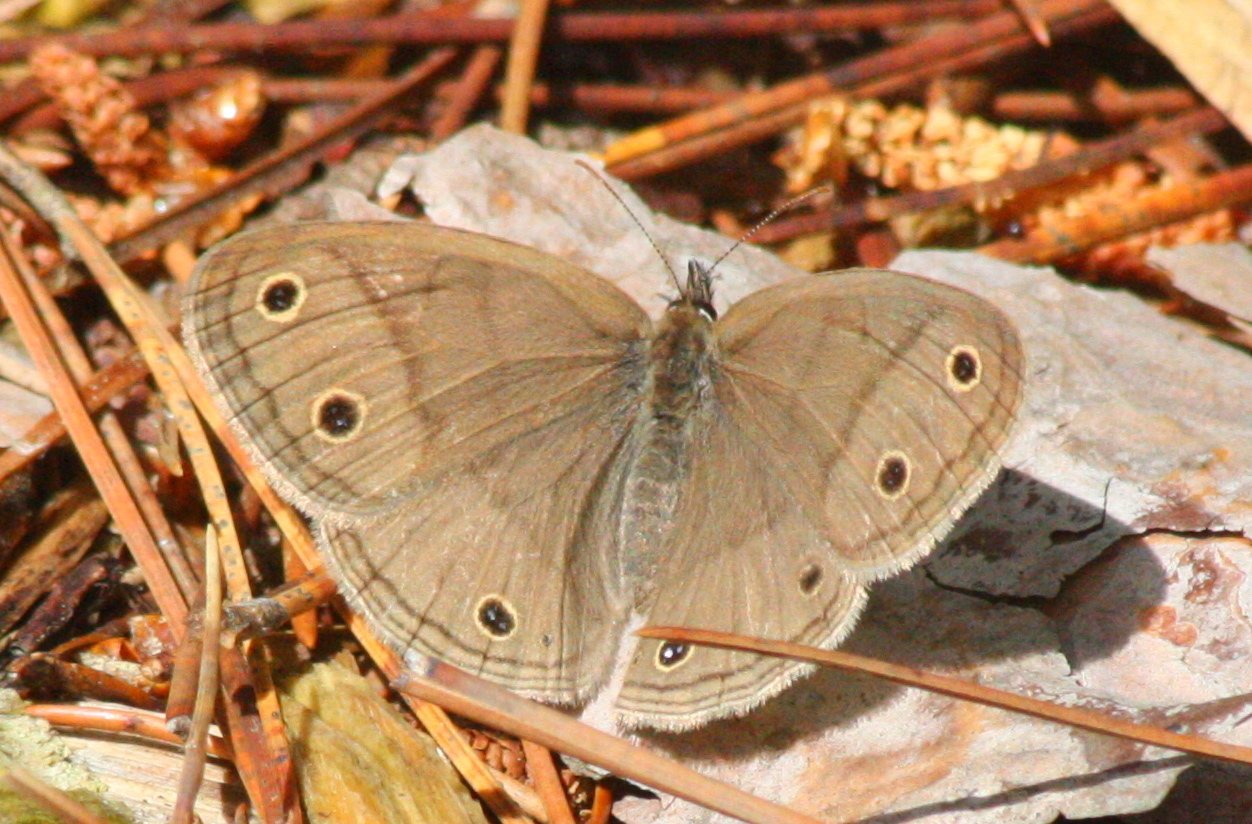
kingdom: Animalia
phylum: Arthropoda
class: Insecta
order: Lepidoptera
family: Nymphalidae
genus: Euptychia
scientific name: Euptychia cymela
